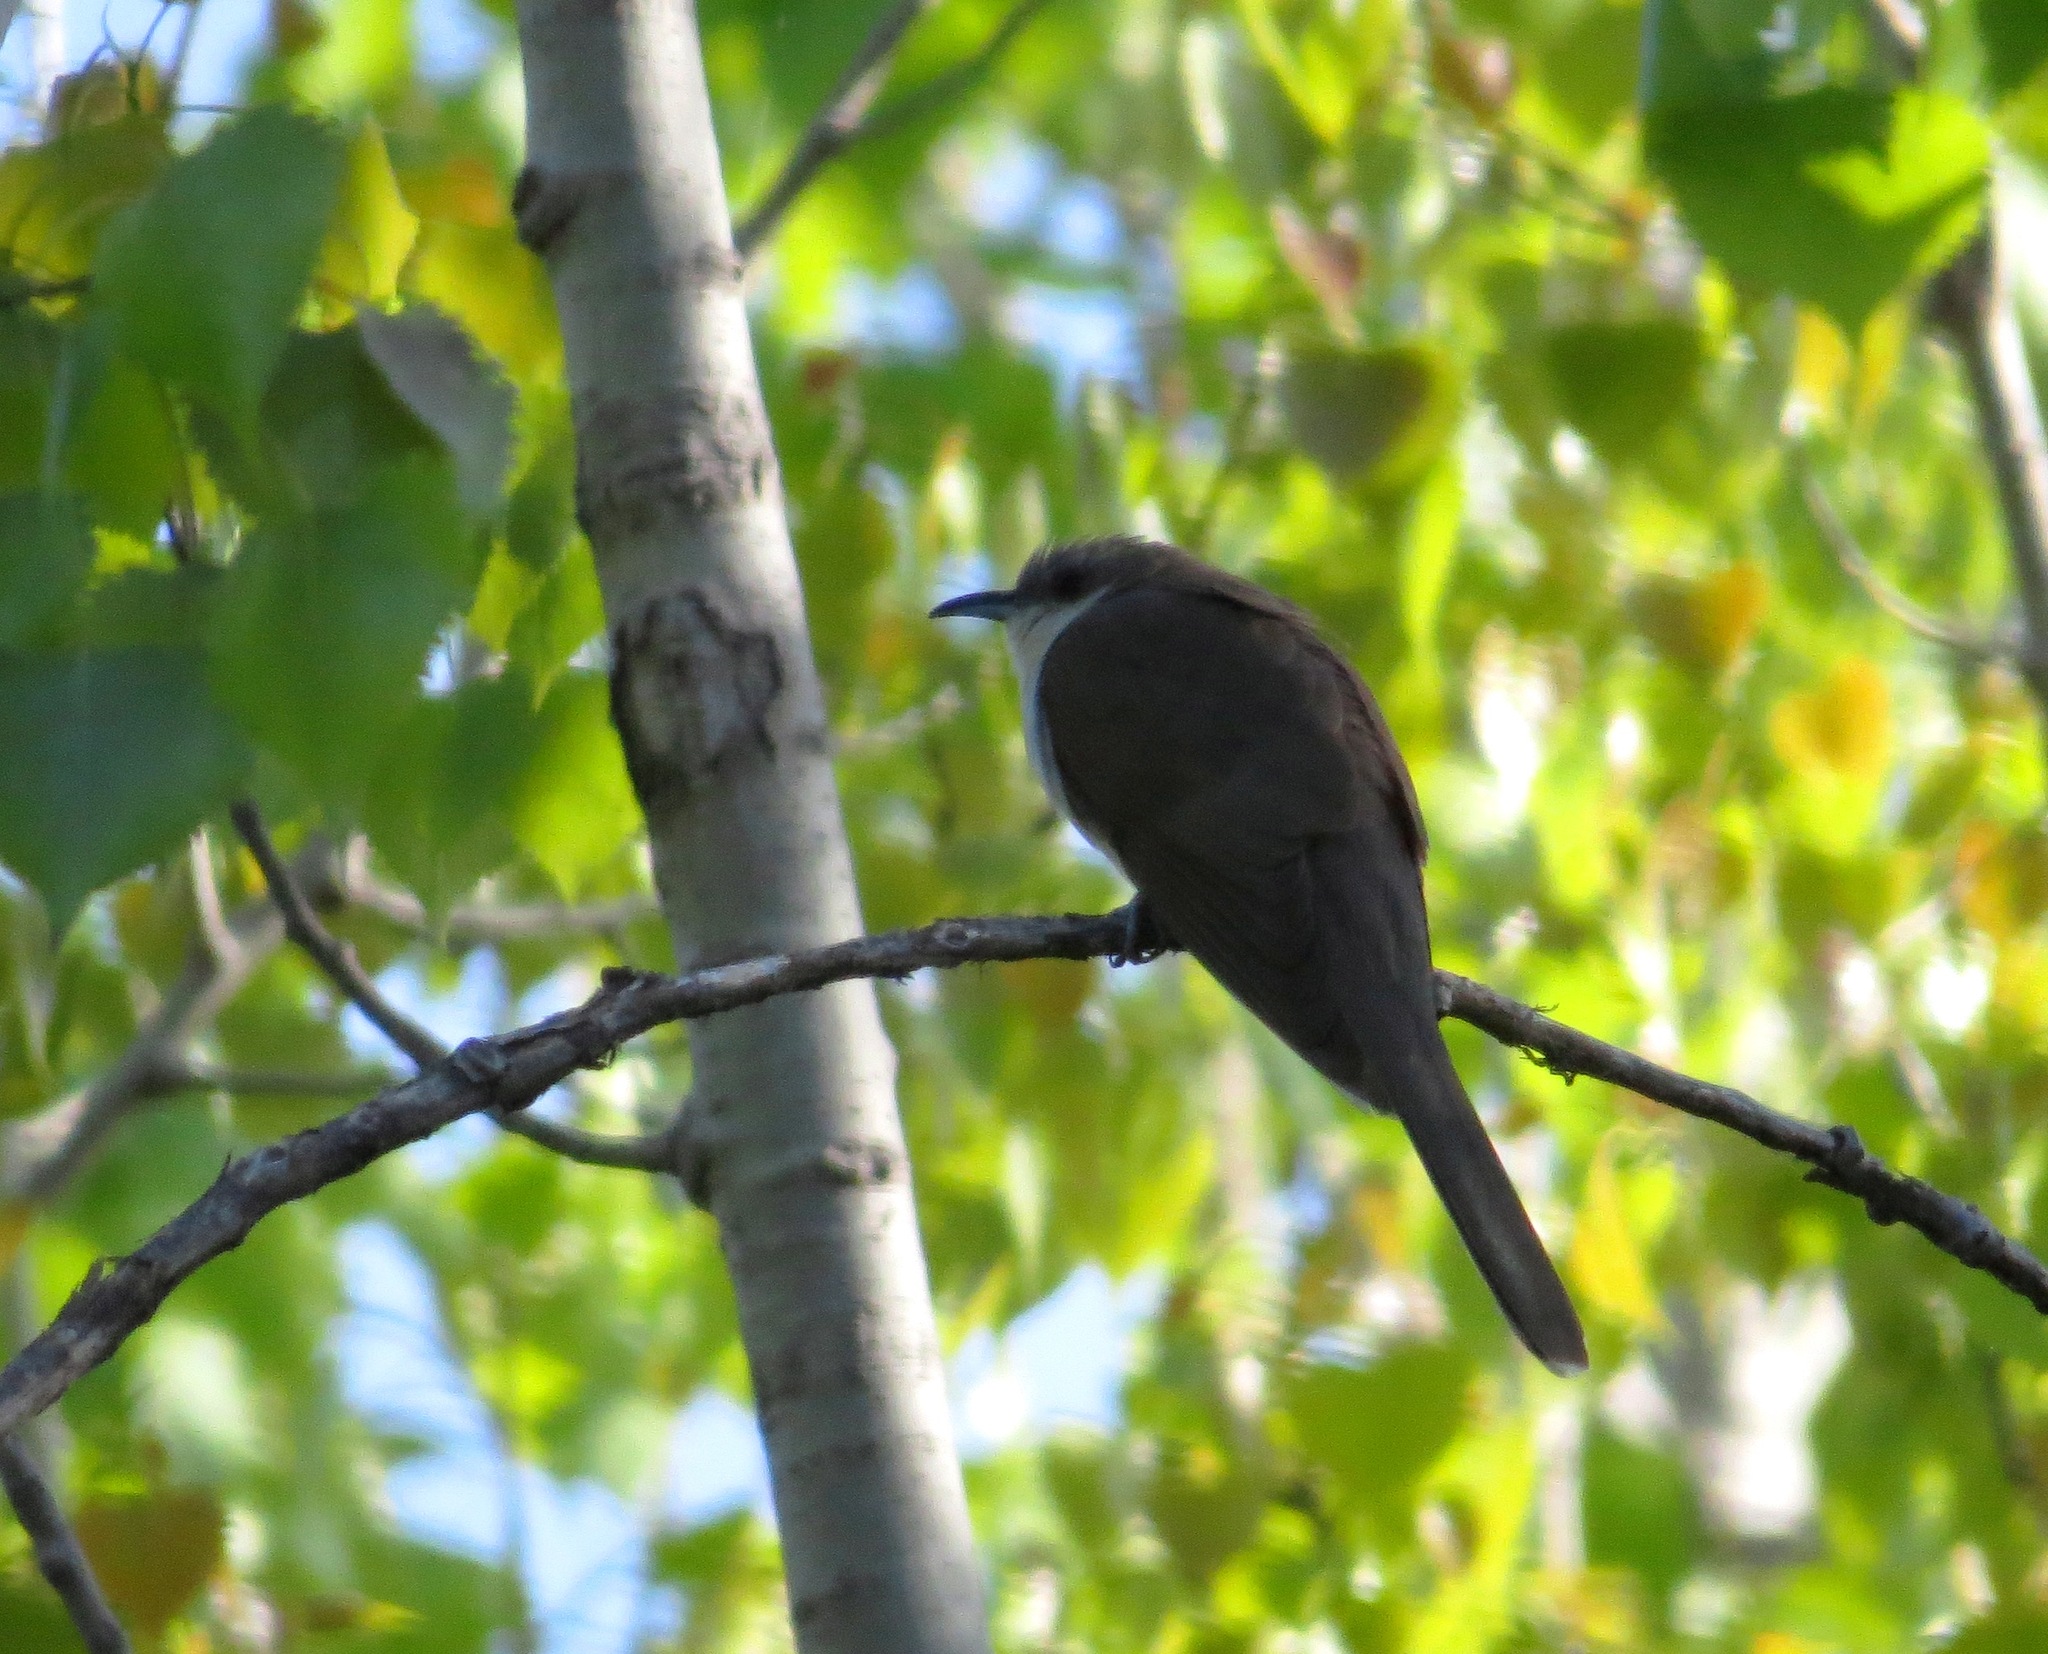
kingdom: Animalia
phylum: Chordata
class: Aves
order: Cuculiformes
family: Cuculidae
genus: Coccyzus
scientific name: Coccyzus erythropthalmus
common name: Black-billed cuckoo
